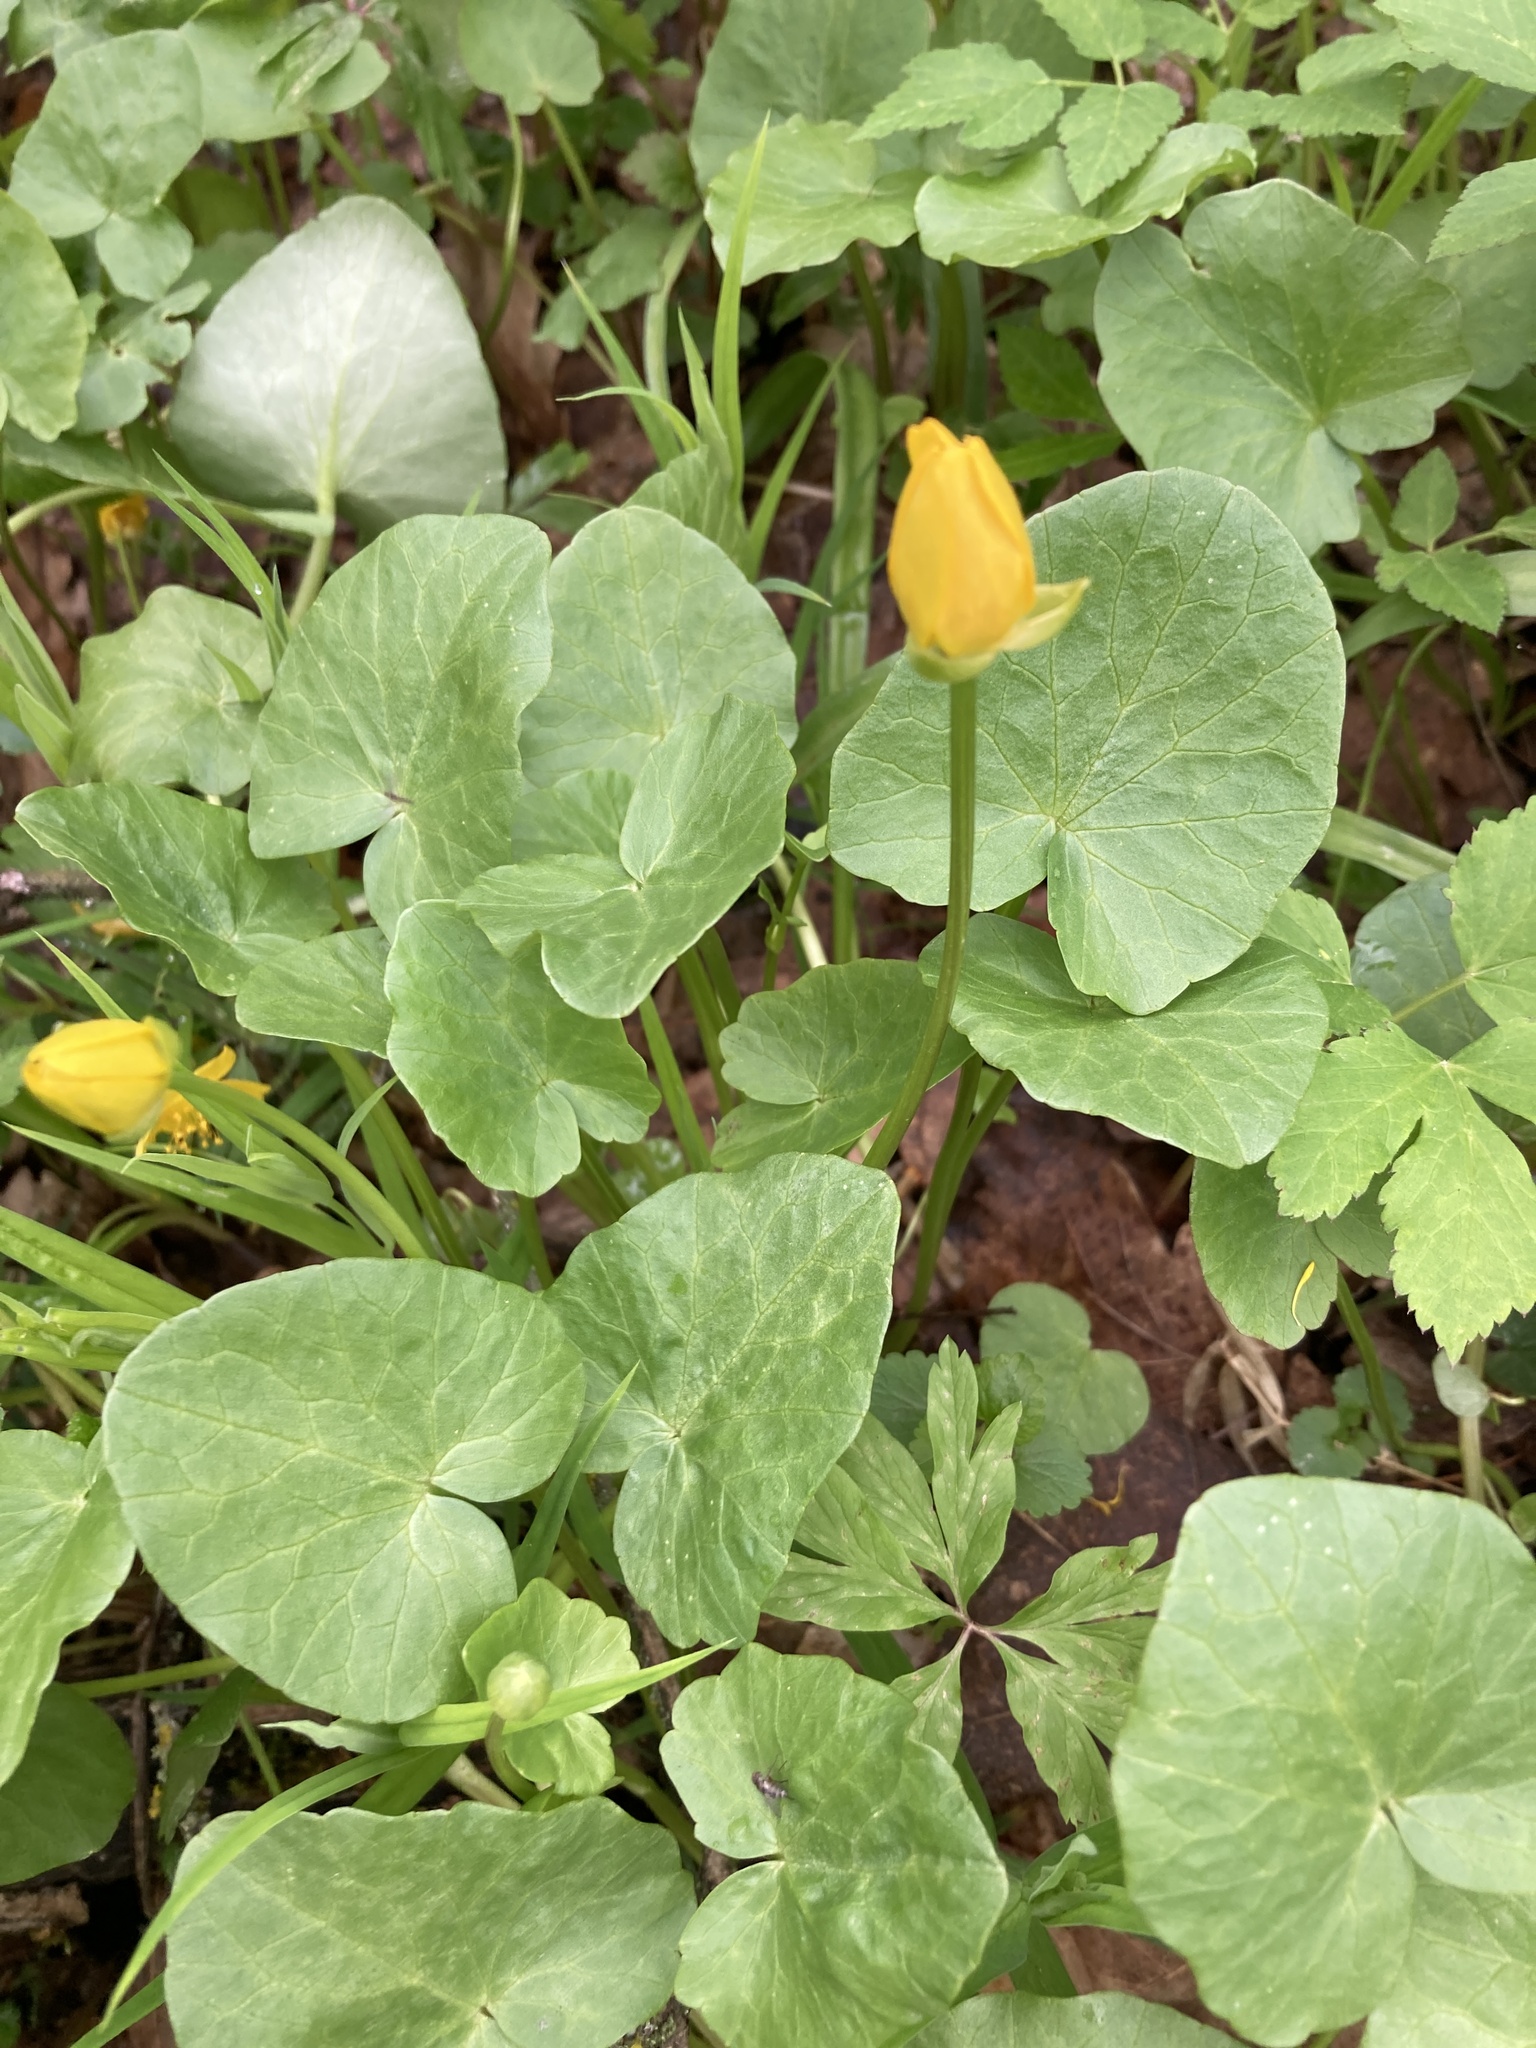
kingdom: Plantae
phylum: Tracheophyta
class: Magnoliopsida
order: Ranunculales
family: Ranunculaceae
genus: Ficaria
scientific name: Ficaria verna
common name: Lesser celandine
